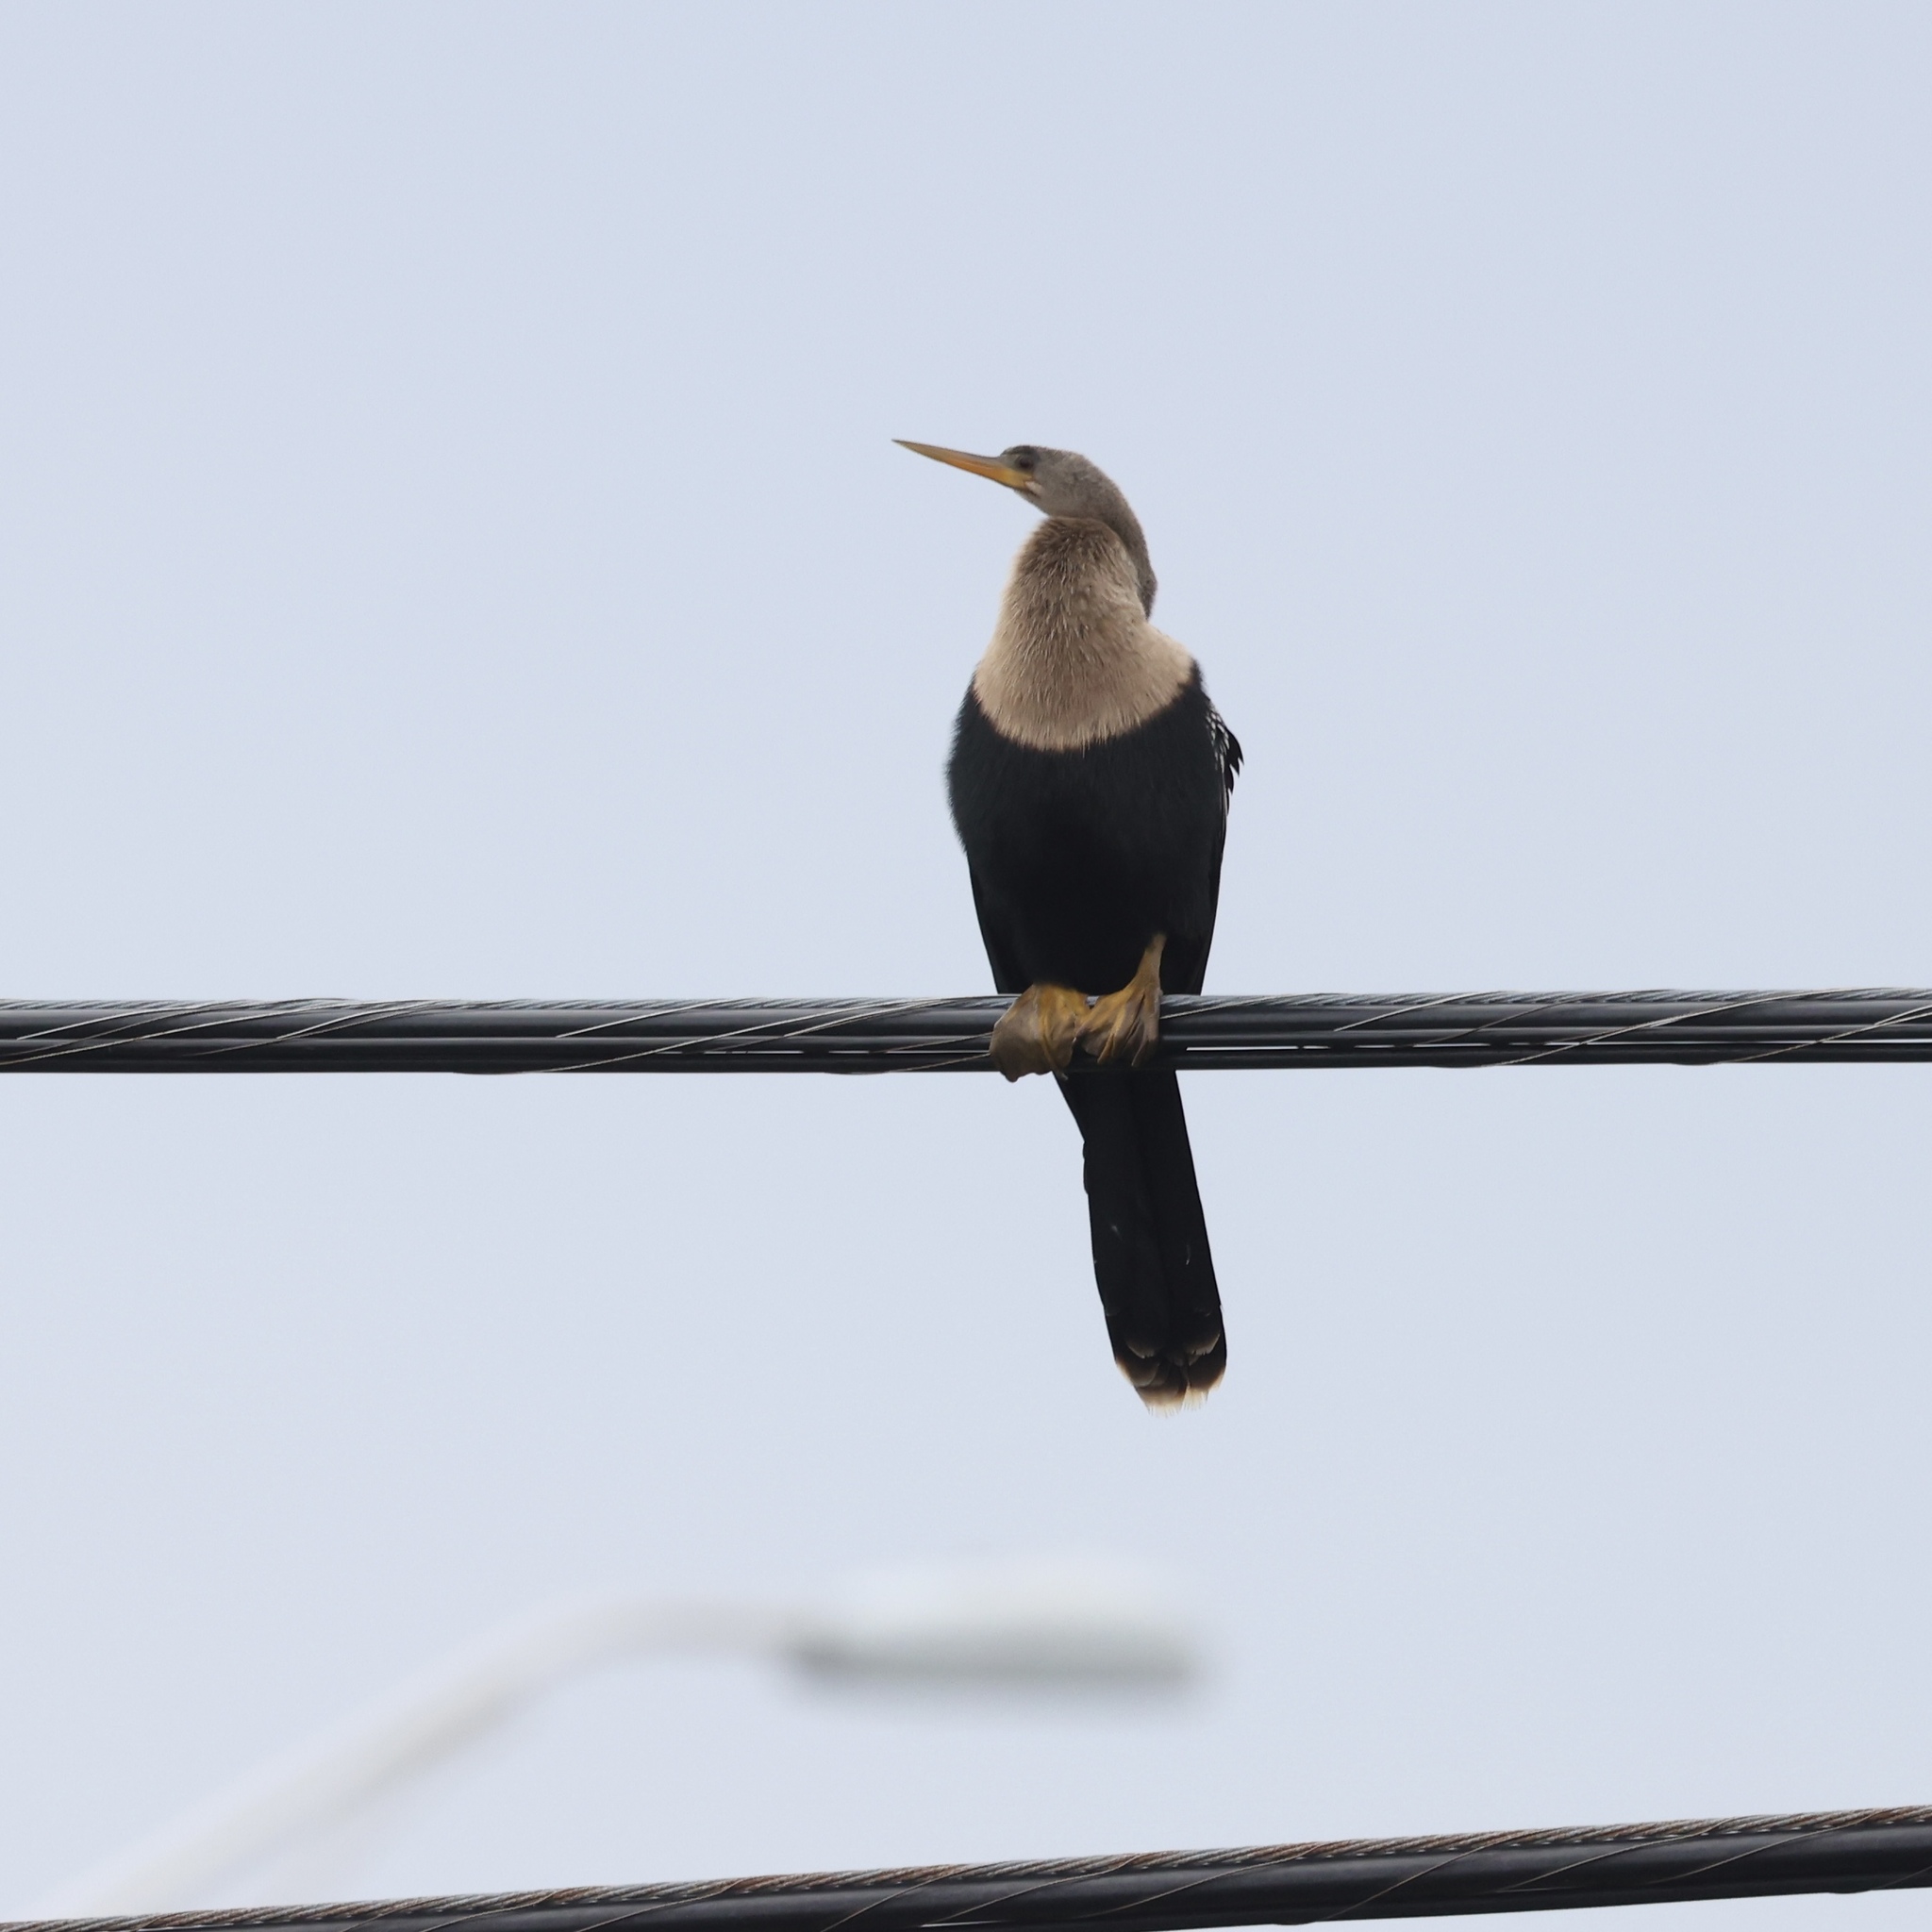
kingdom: Animalia
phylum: Chordata
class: Aves
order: Suliformes
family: Anhingidae
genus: Anhinga
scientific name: Anhinga anhinga
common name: Anhinga
